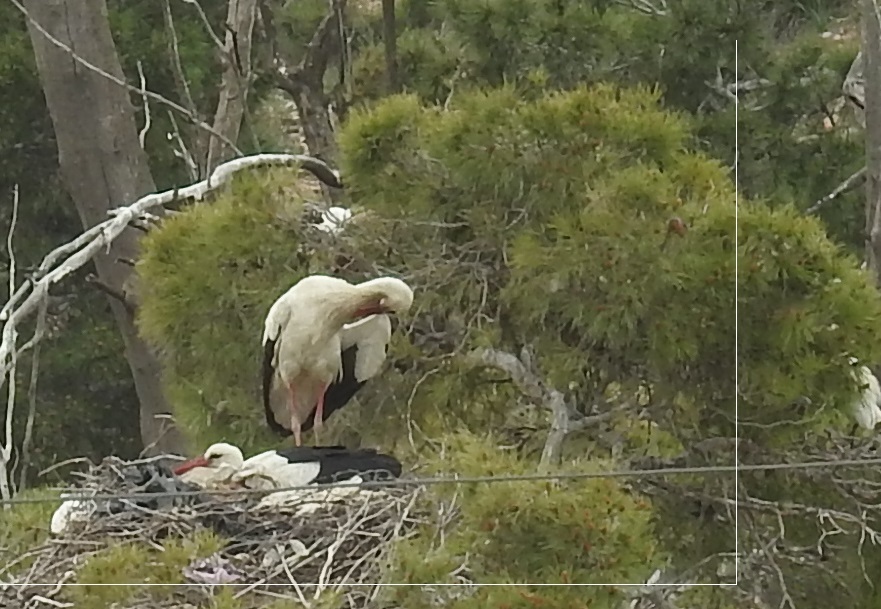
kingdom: Animalia
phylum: Chordata
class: Aves
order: Ciconiiformes
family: Ciconiidae
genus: Ciconia
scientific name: Ciconia ciconia
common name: White stork
